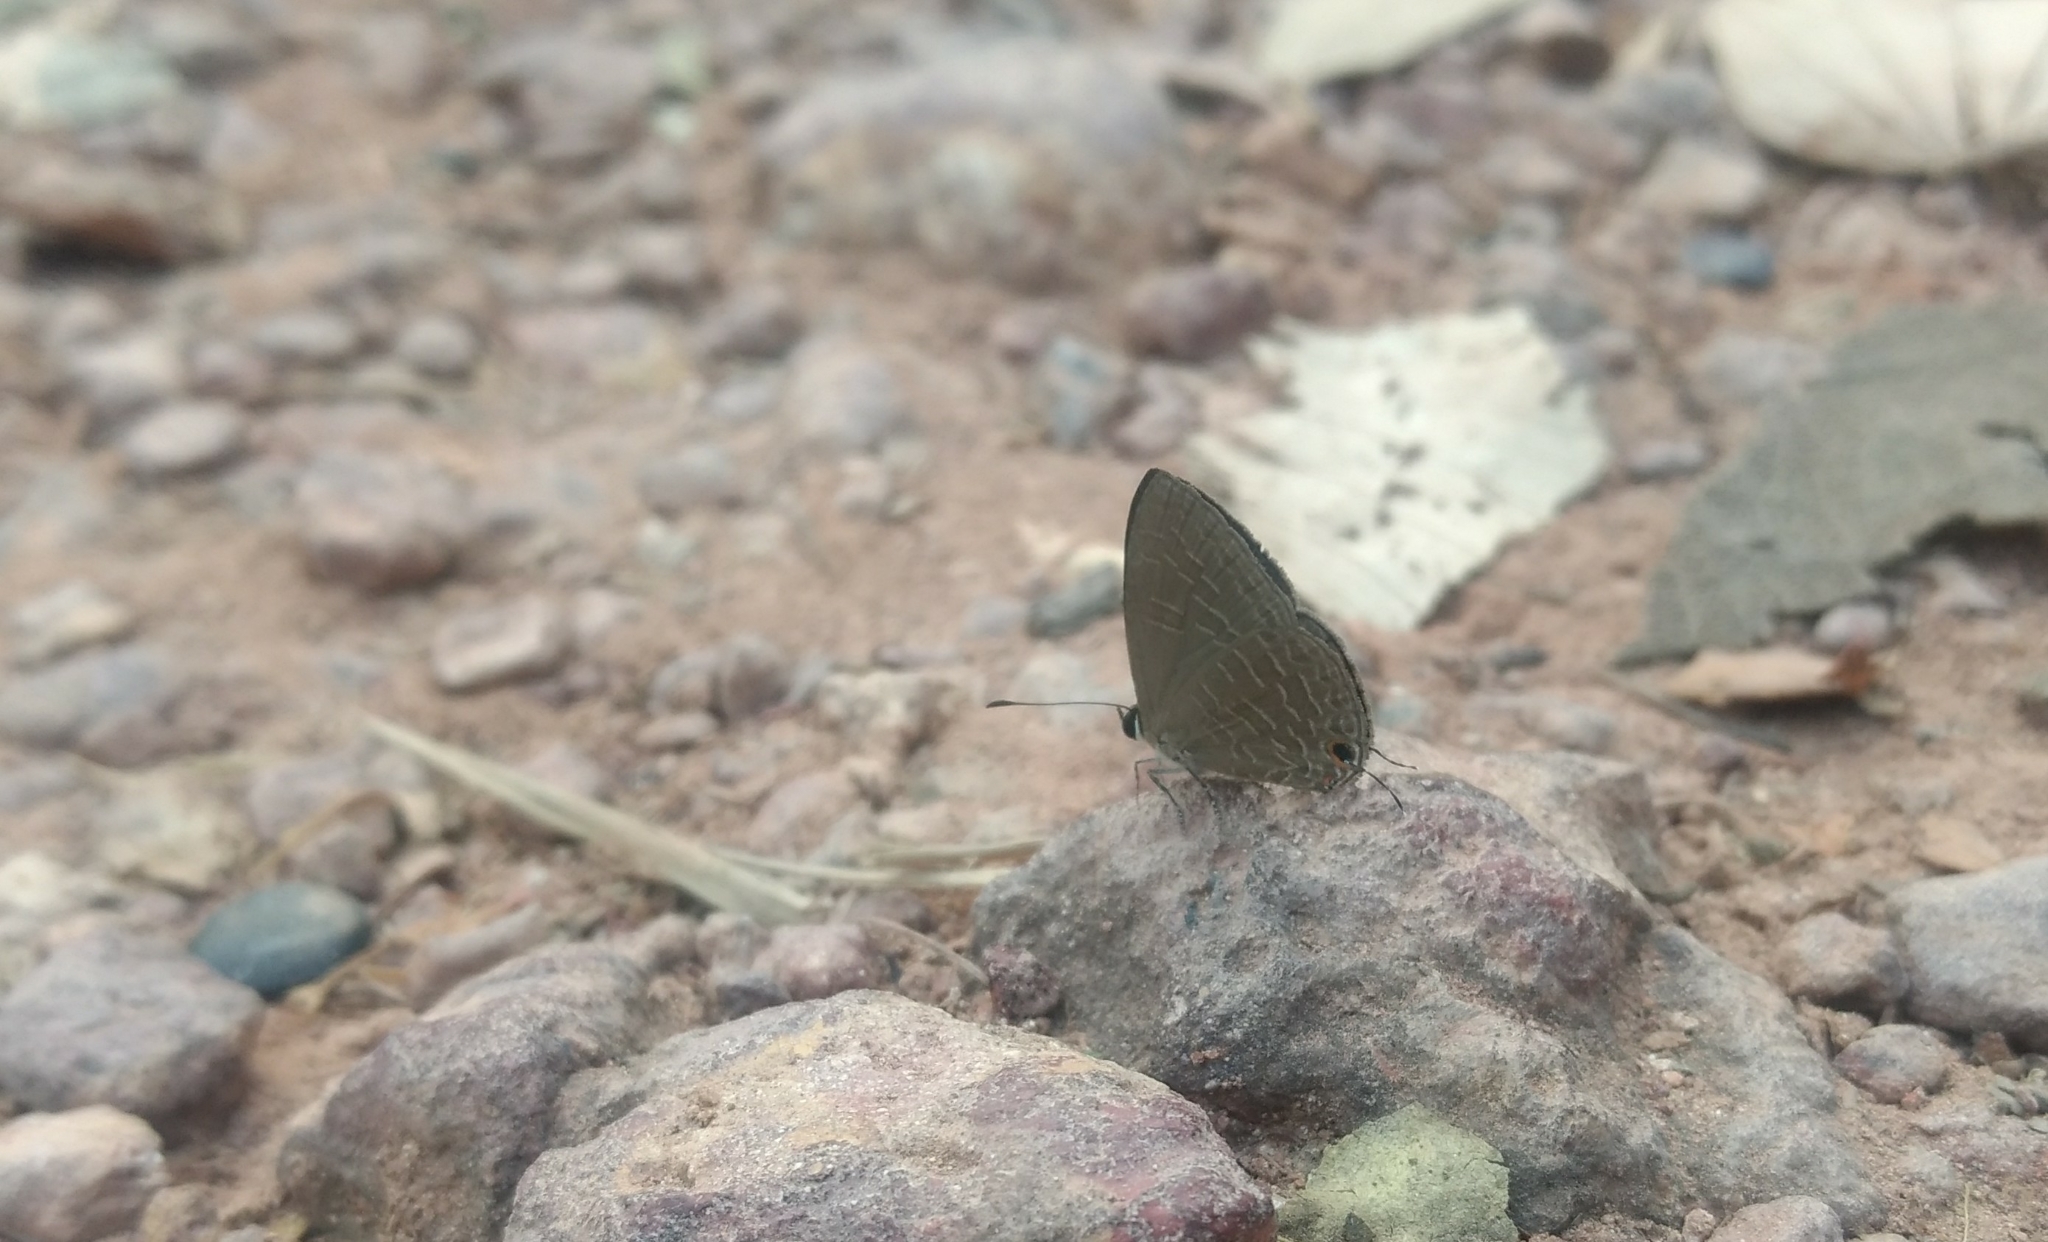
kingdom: Animalia
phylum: Arthropoda
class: Insecta
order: Lepidoptera
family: Lycaenidae
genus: Jamides
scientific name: Jamides bochus
